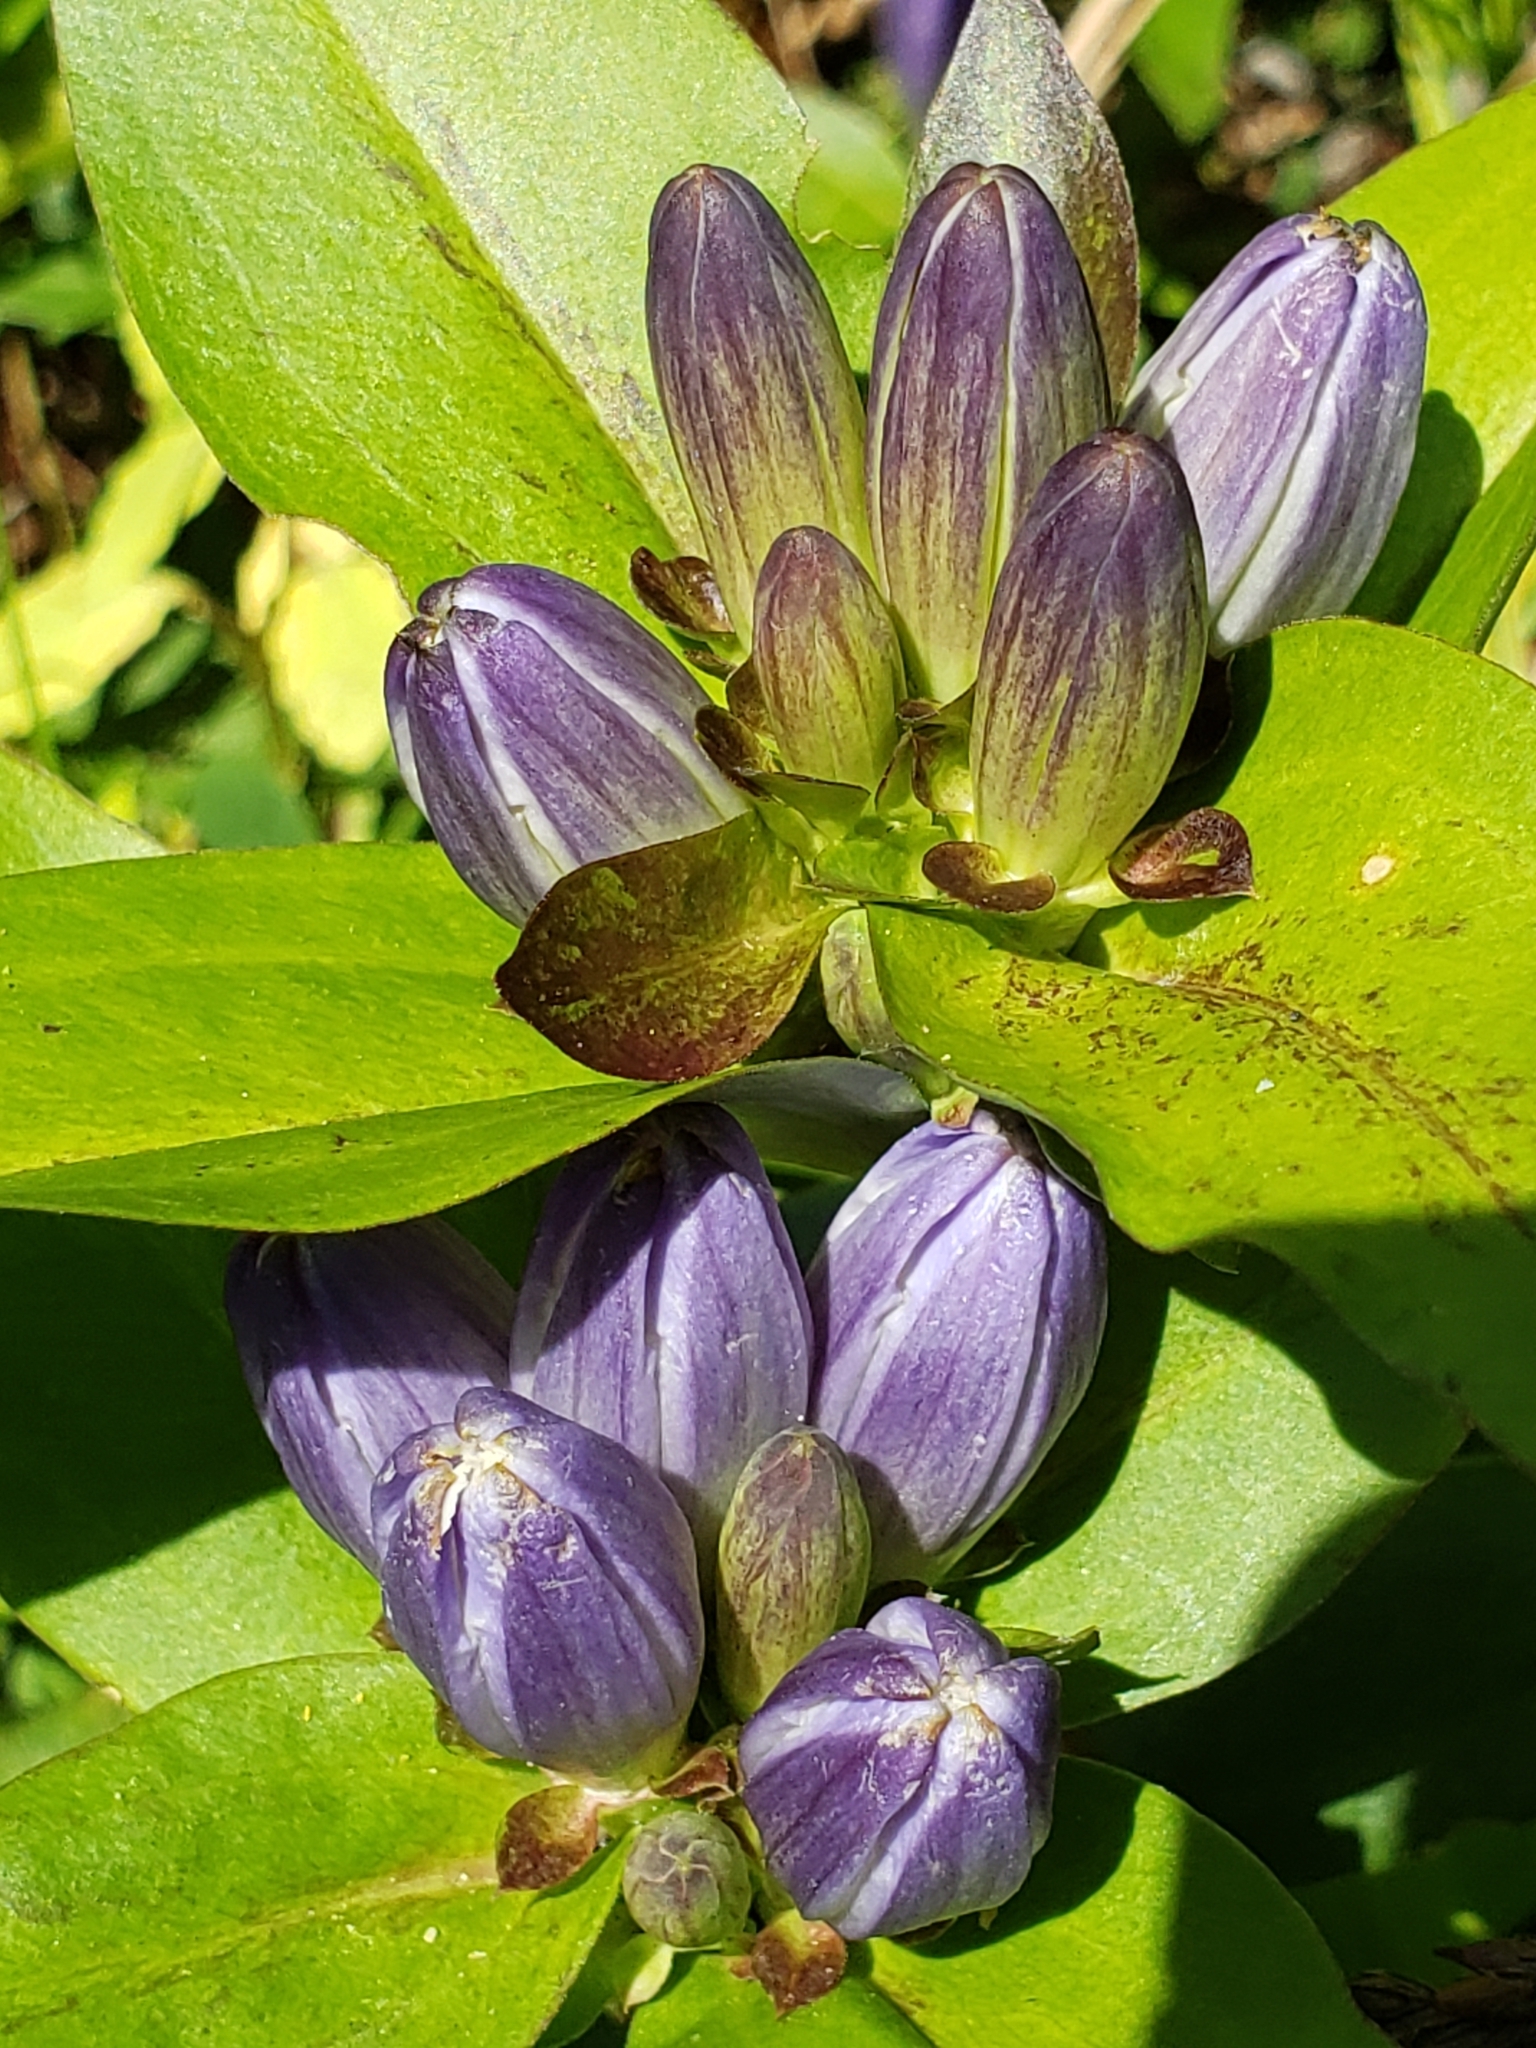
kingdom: Plantae
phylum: Tracheophyta
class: Magnoliopsida
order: Gentianales
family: Gentianaceae
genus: Gentiana
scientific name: Gentiana clausa
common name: Blind gentian
